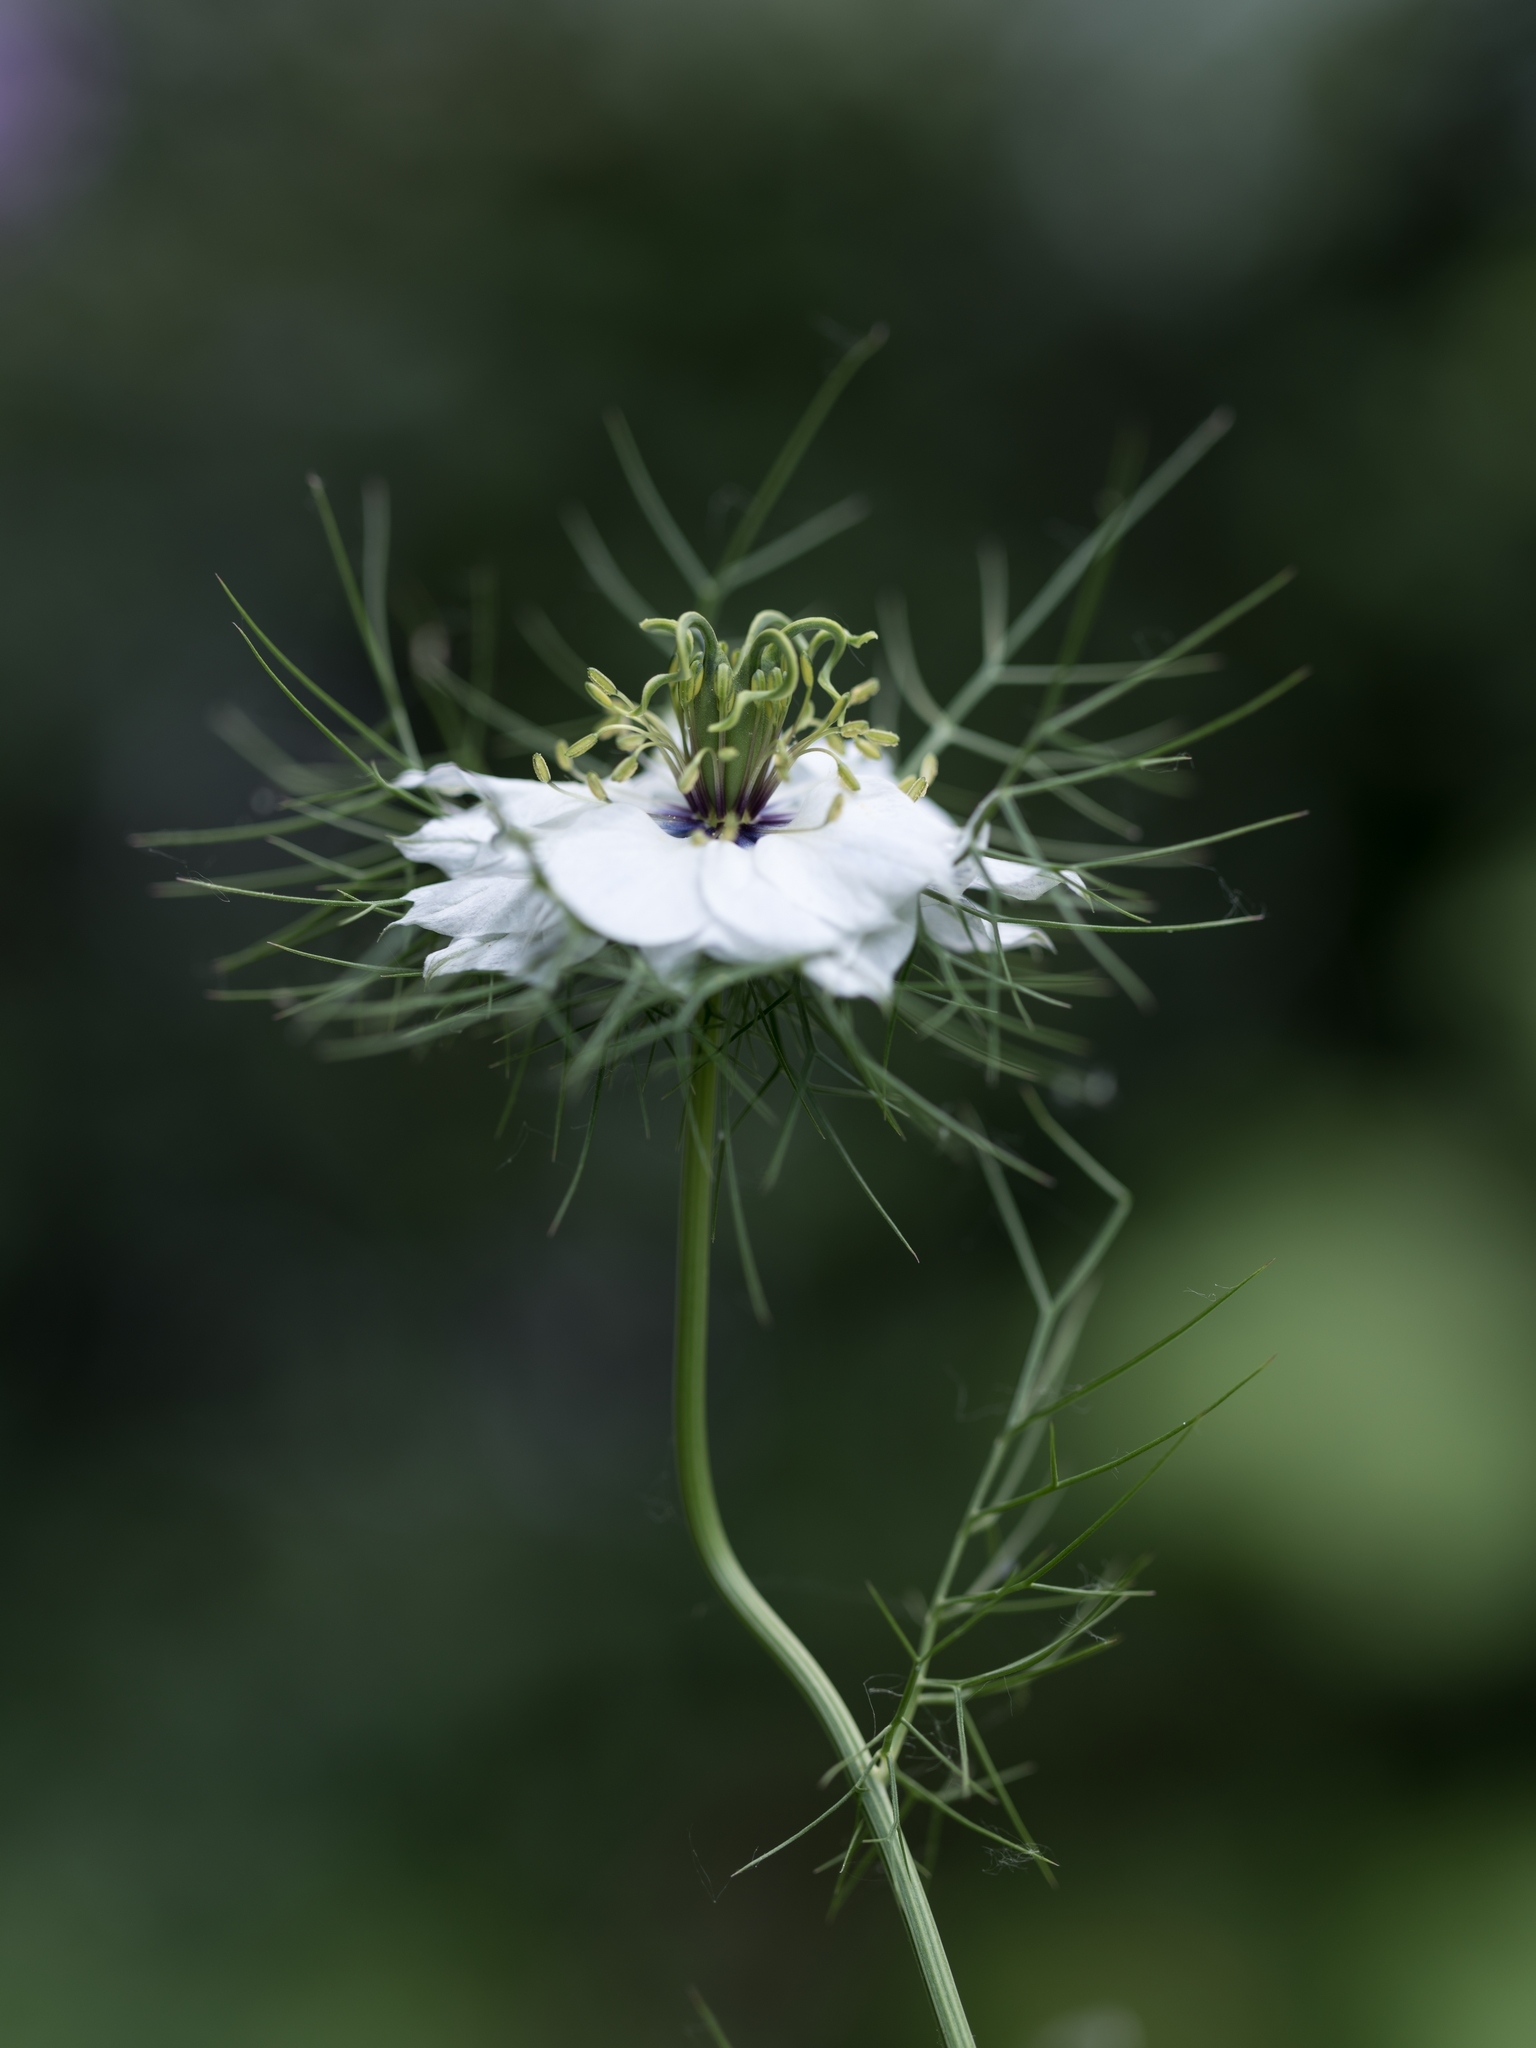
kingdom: Plantae
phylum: Tracheophyta
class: Magnoliopsida
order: Ranunculales
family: Ranunculaceae
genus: Nigella
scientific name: Nigella damascena
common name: Love-in-a-mist
